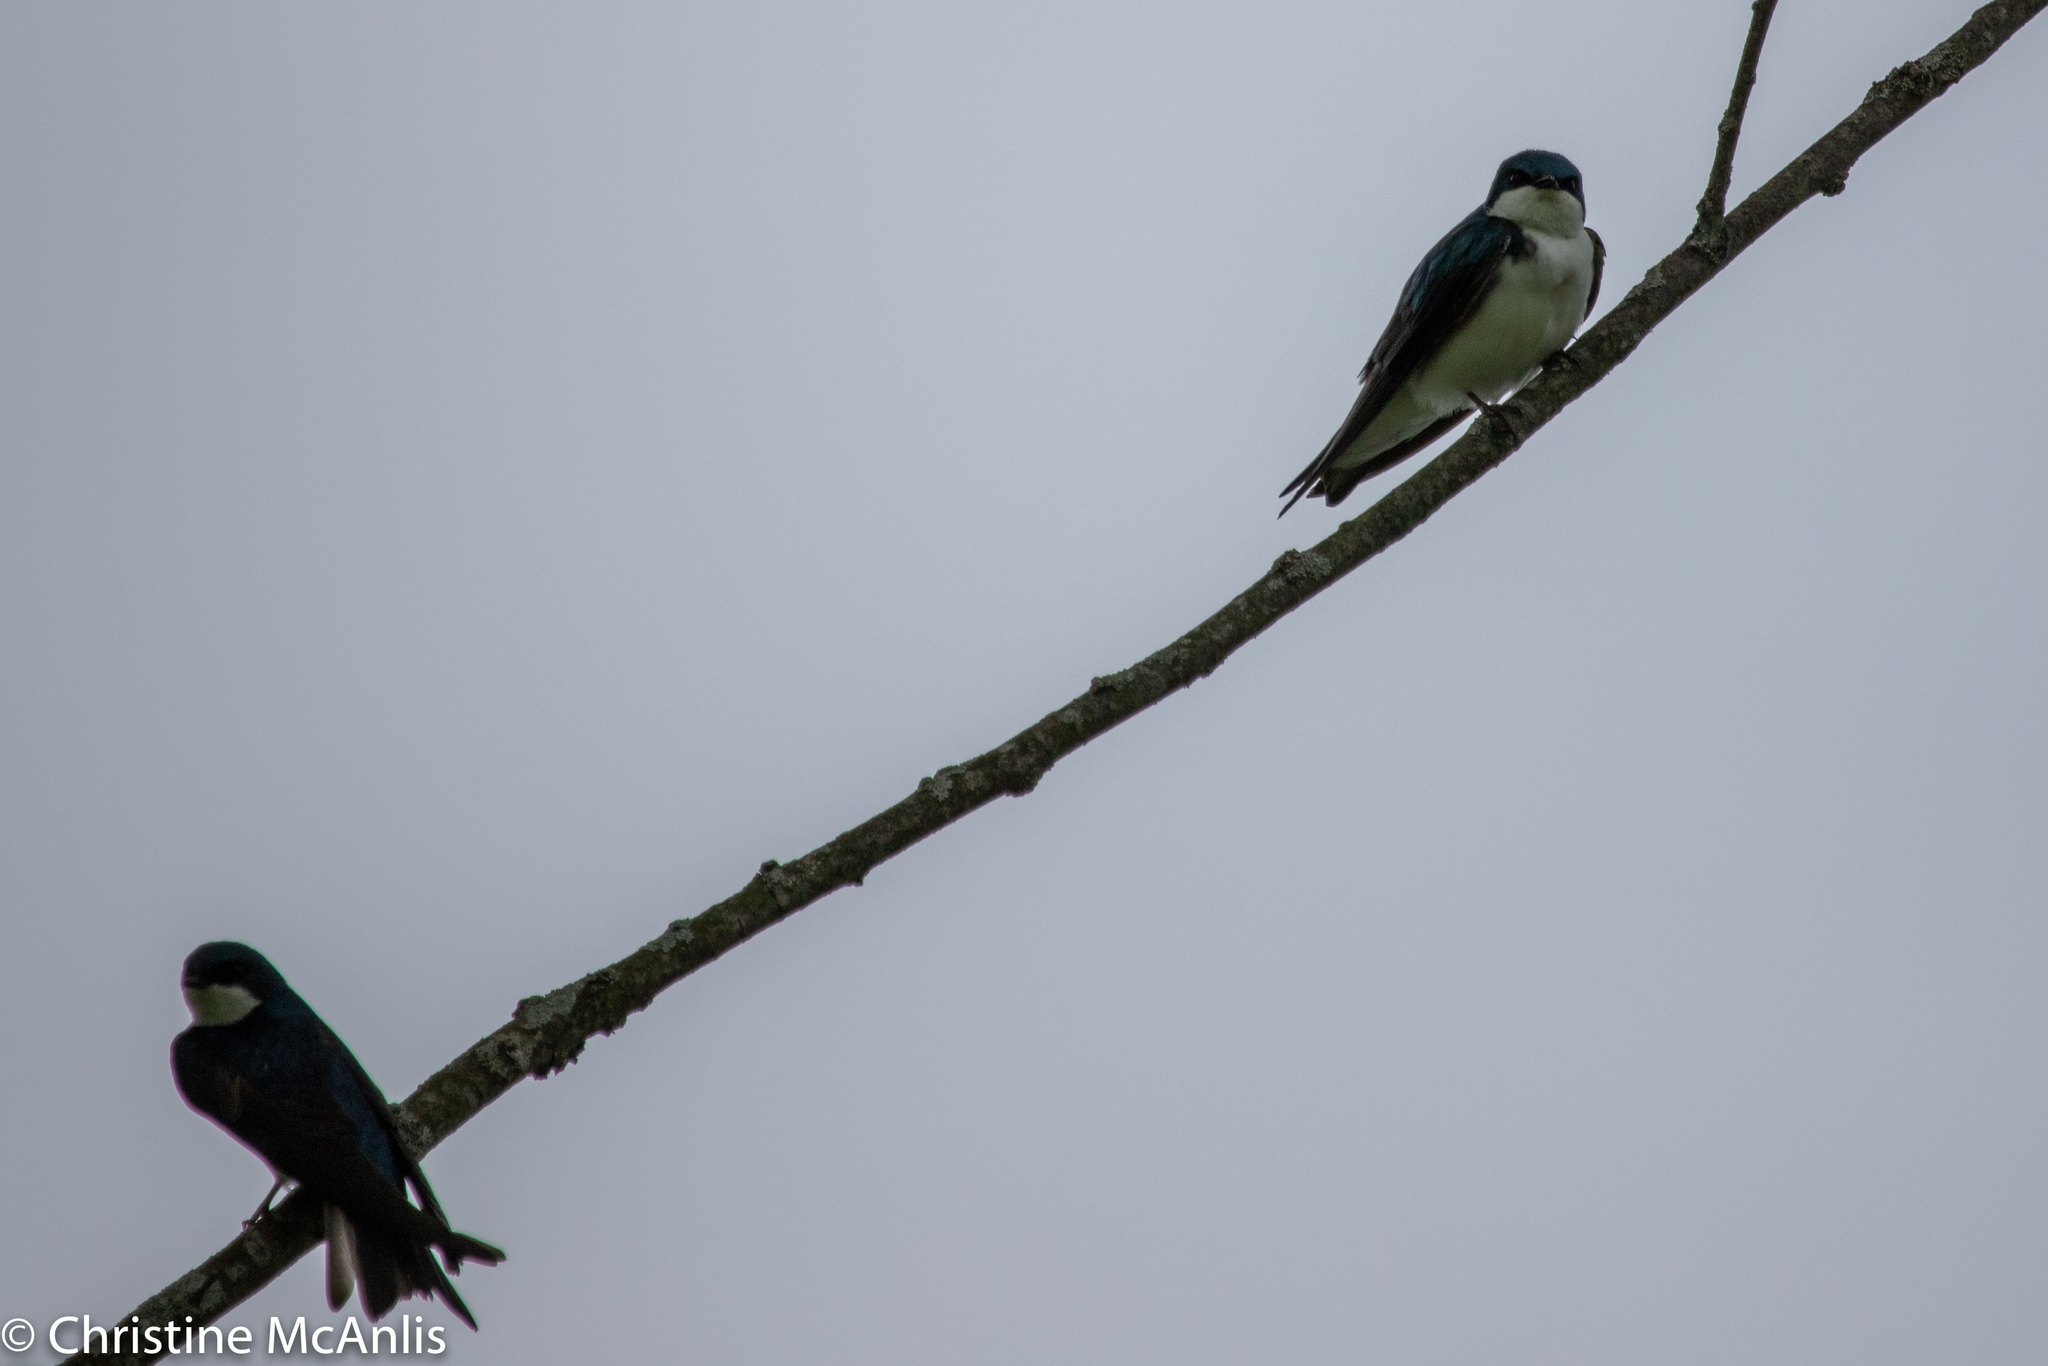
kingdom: Animalia
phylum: Chordata
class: Aves
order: Passeriformes
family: Hirundinidae
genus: Tachycineta
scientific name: Tachycineta bicolor
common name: Tree swallow
